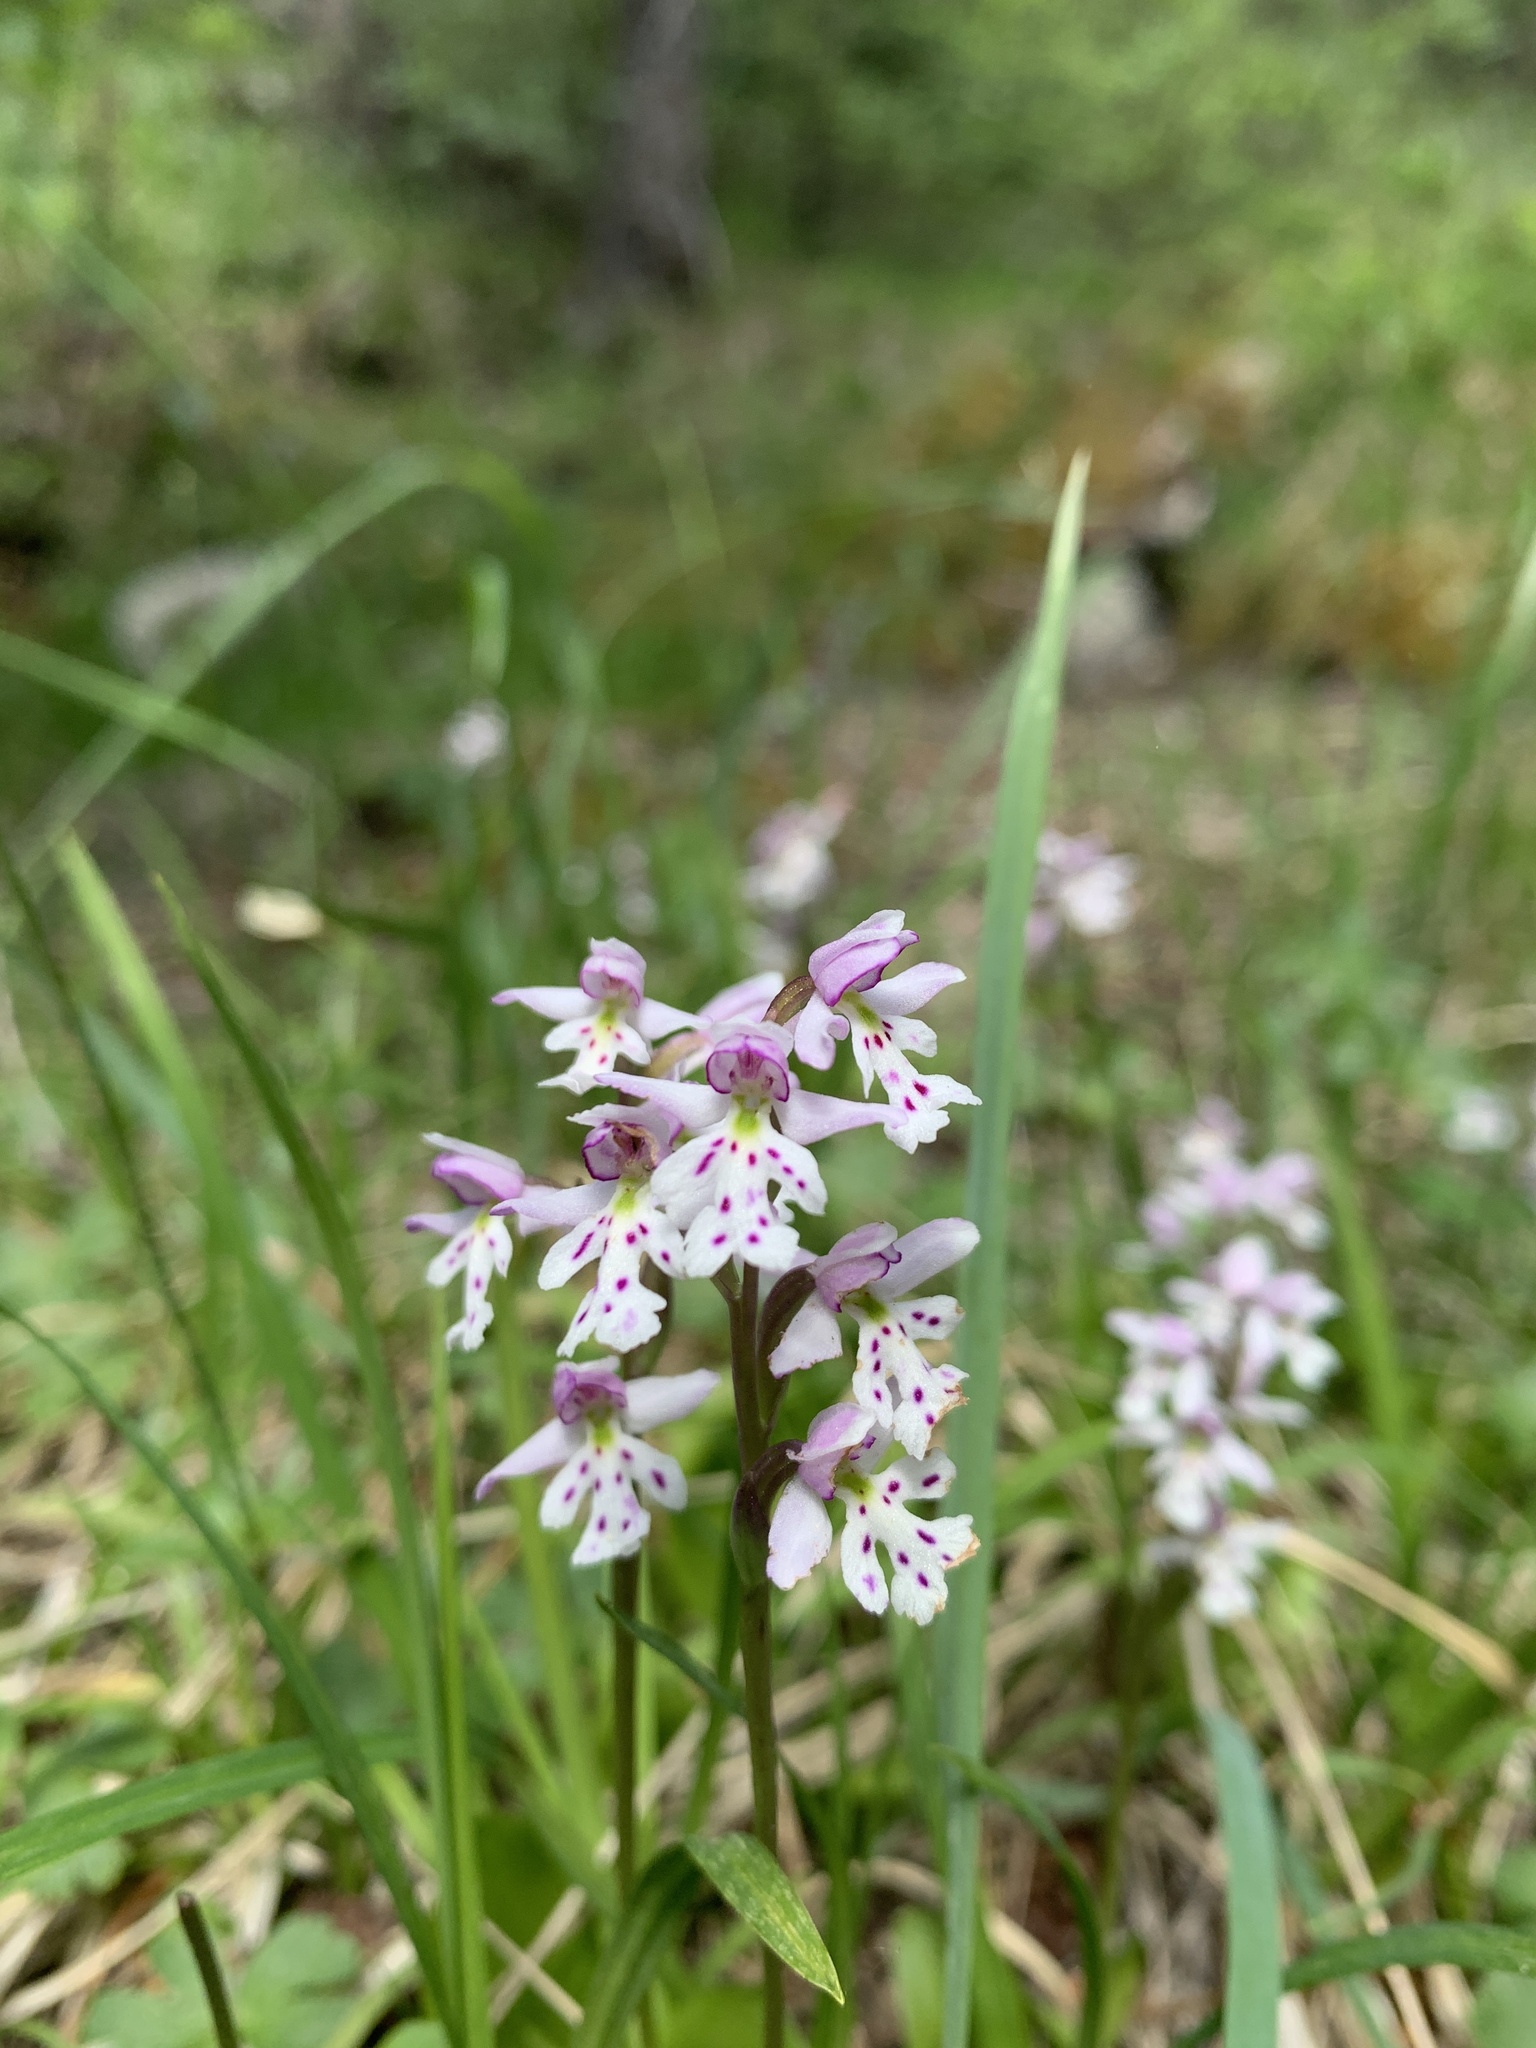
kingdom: Plantae
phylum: Tracheophyta
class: Liliopsida
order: Asparagales
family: Orchidaceae
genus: Galearis
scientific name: Galearis rotundifolia
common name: One-leaved orchis
